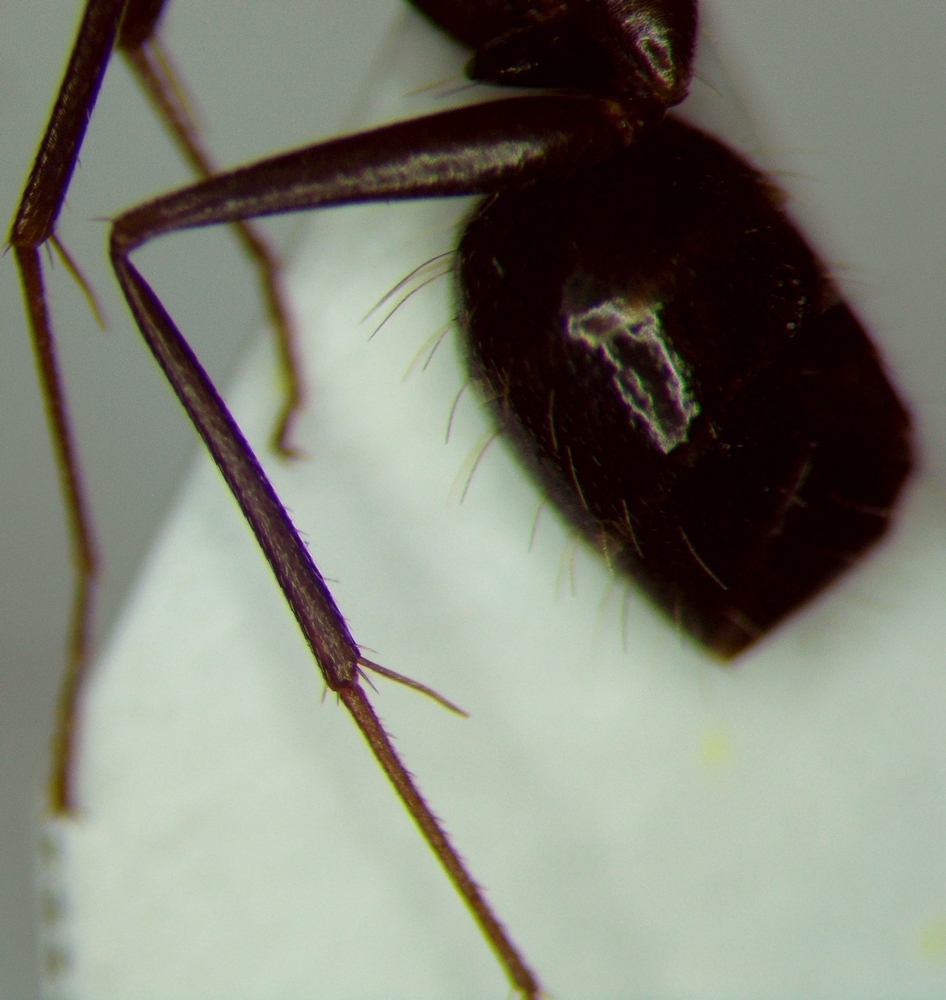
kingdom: Animalia
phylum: Arthropoda
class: Insecta
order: Hymenoptera
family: Formicidae
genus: Camponotus
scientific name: Camponotus aethiops
